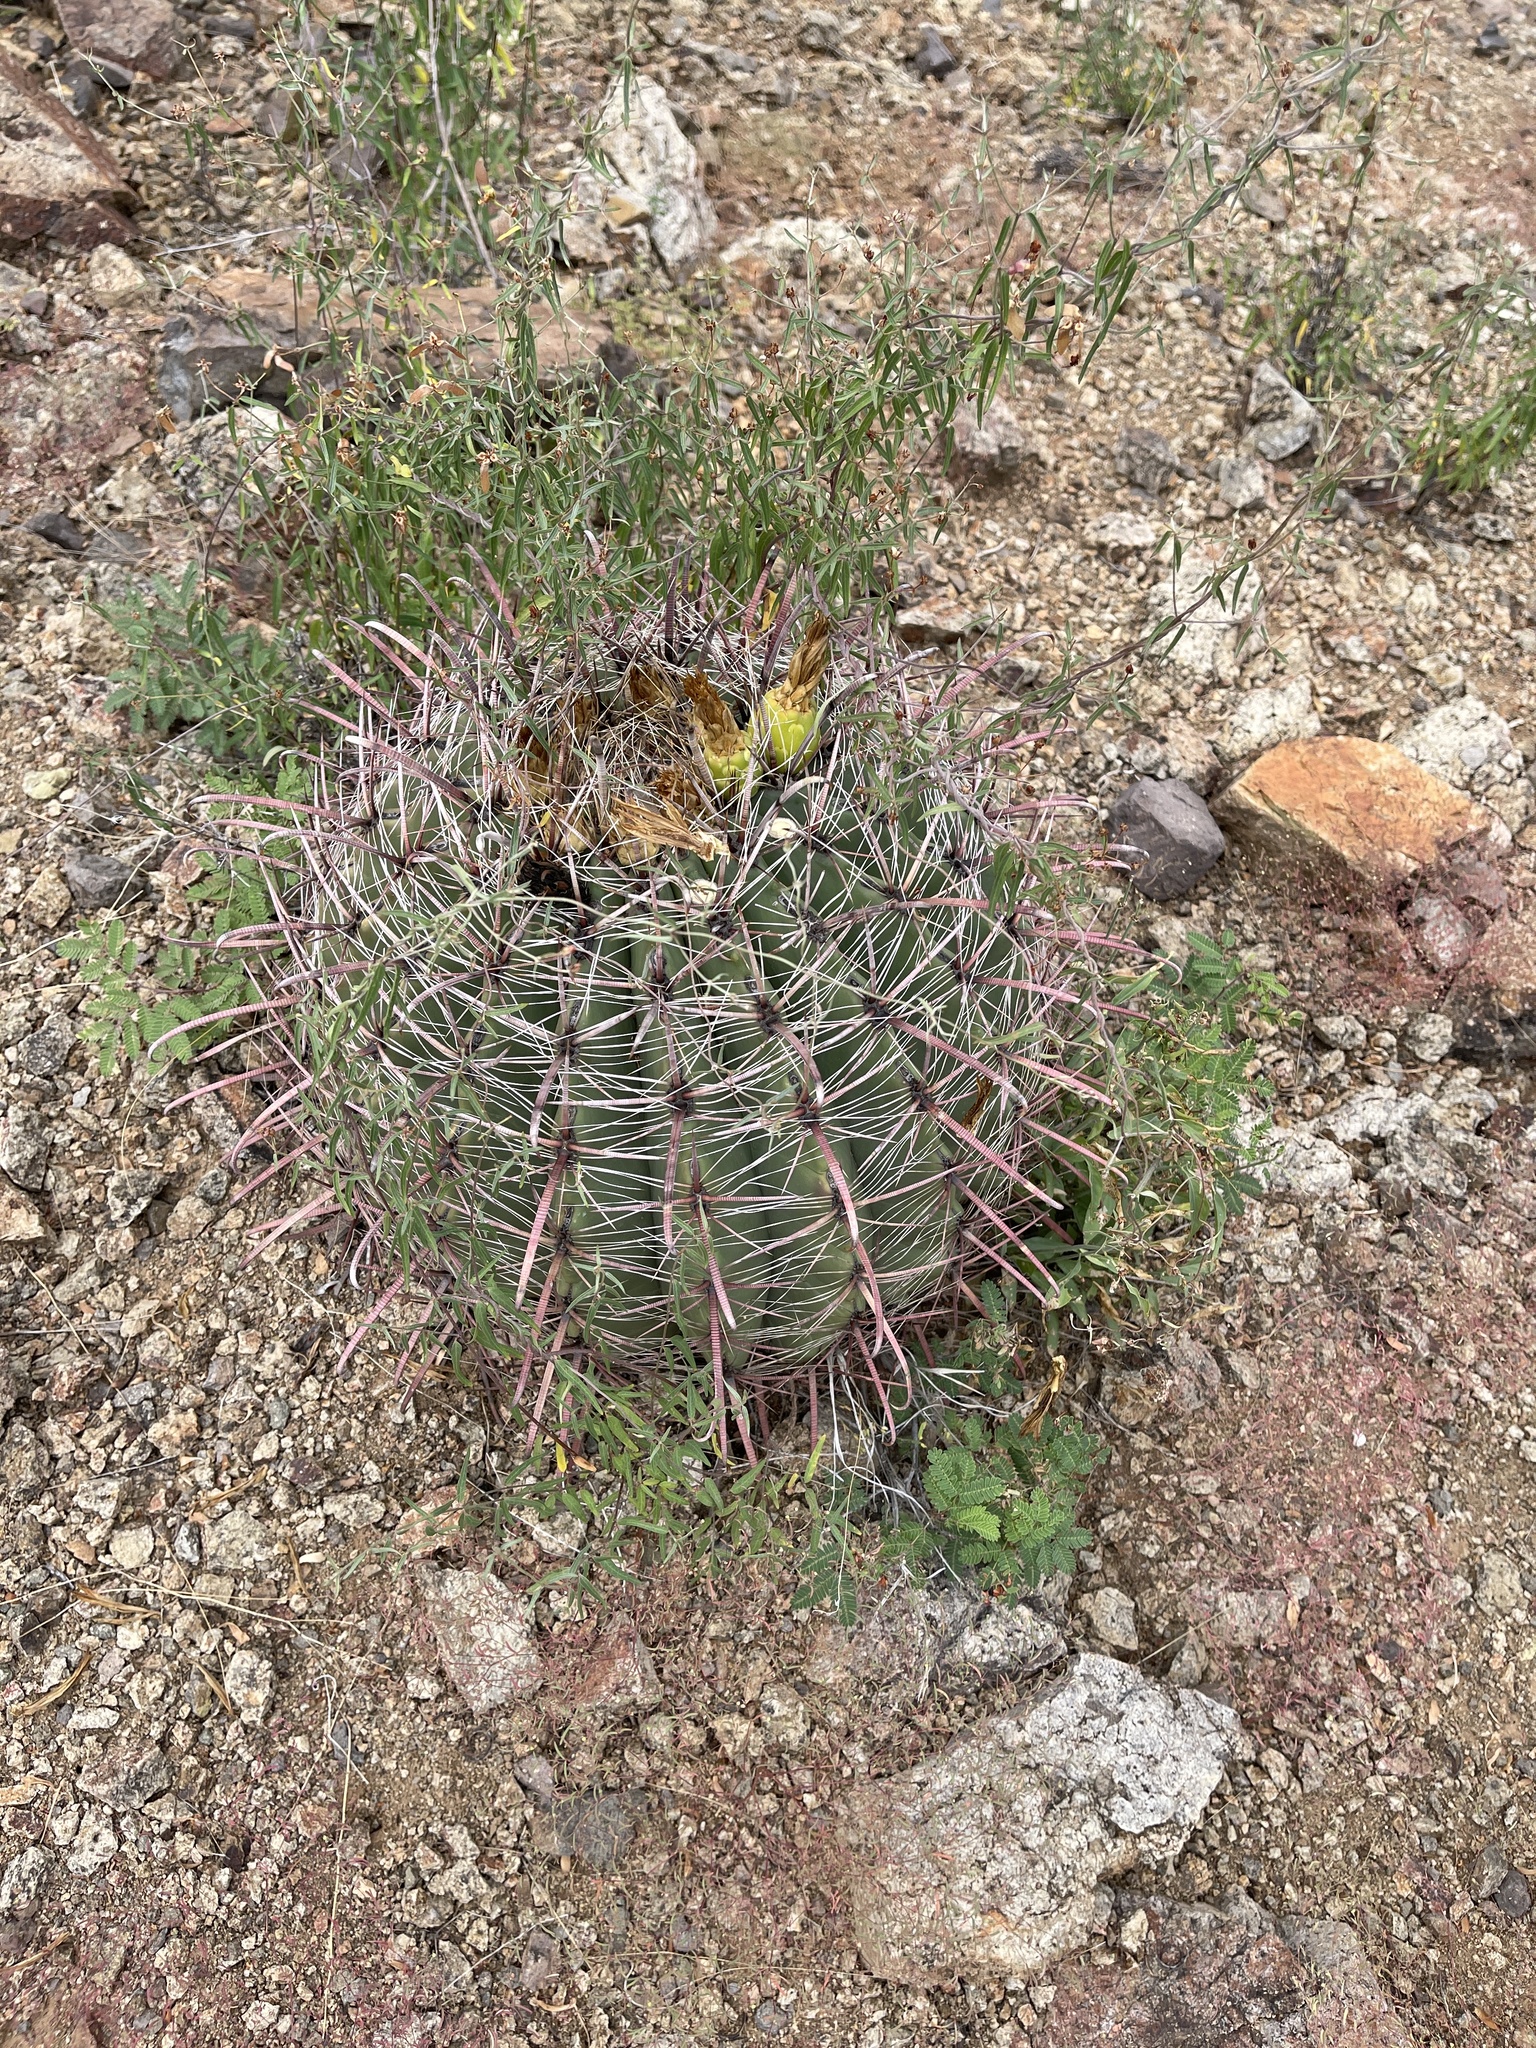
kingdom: Plantae
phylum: Tracheophyta
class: Magnoliopsida
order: Caryophyllales
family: Cactaceae
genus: Ferocactus
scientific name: Ferocactus wislizeni
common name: Candy barrel cactus
